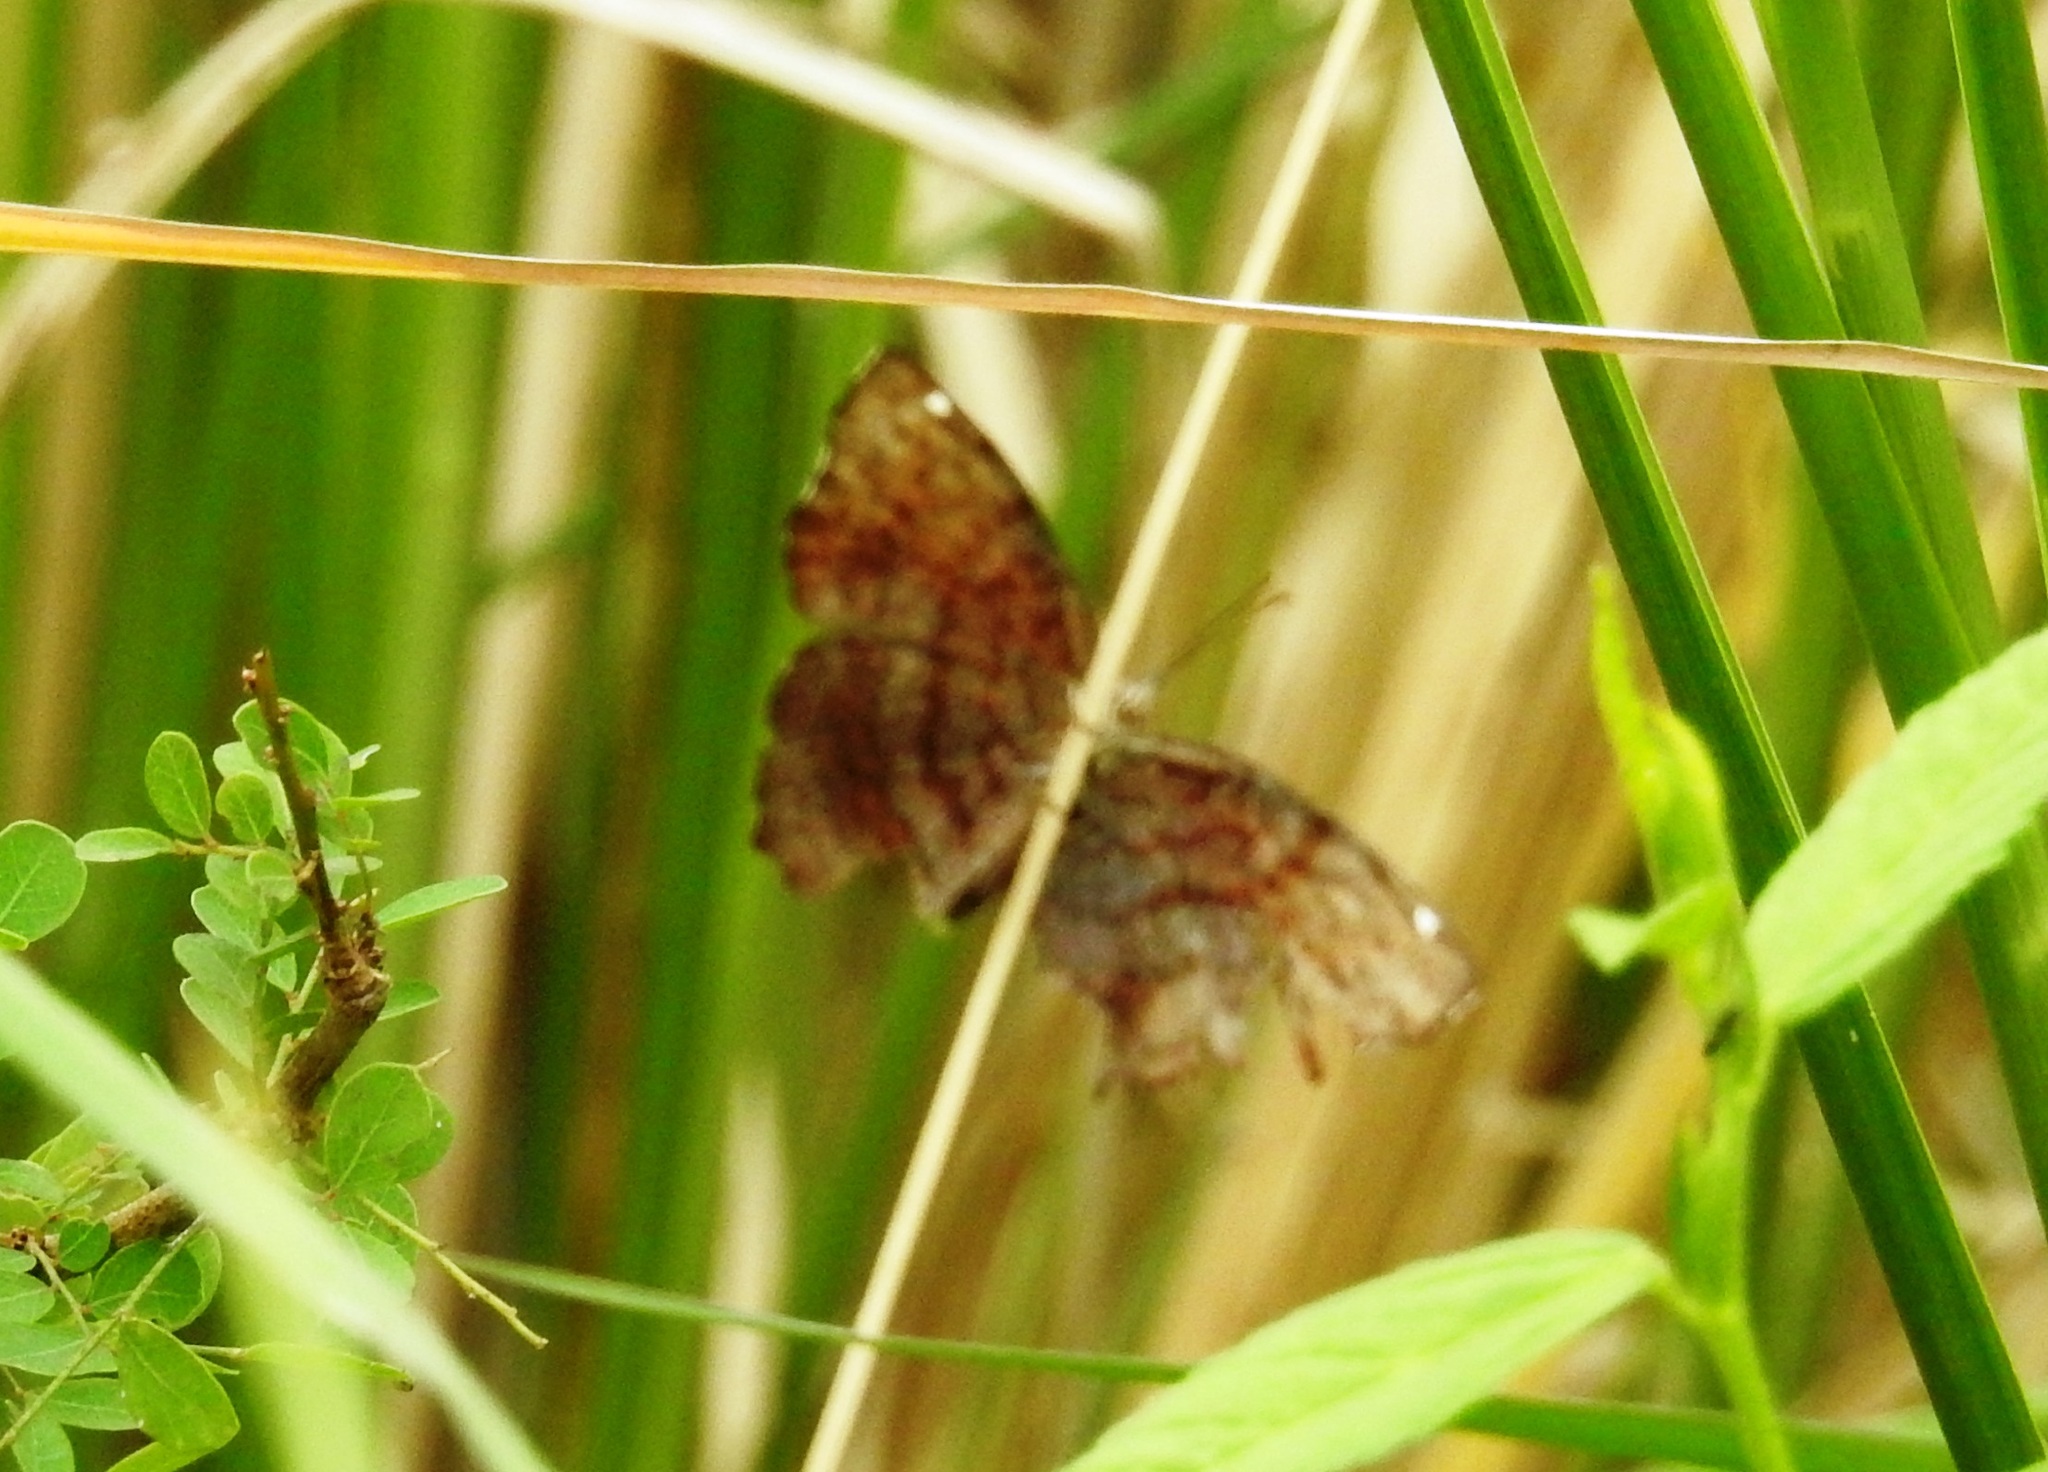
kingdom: Animalia
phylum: Arthropoda
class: Insecta
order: Lepidoptera
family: Nymphalidae
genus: Ariadne
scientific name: Ariadne ariadne
